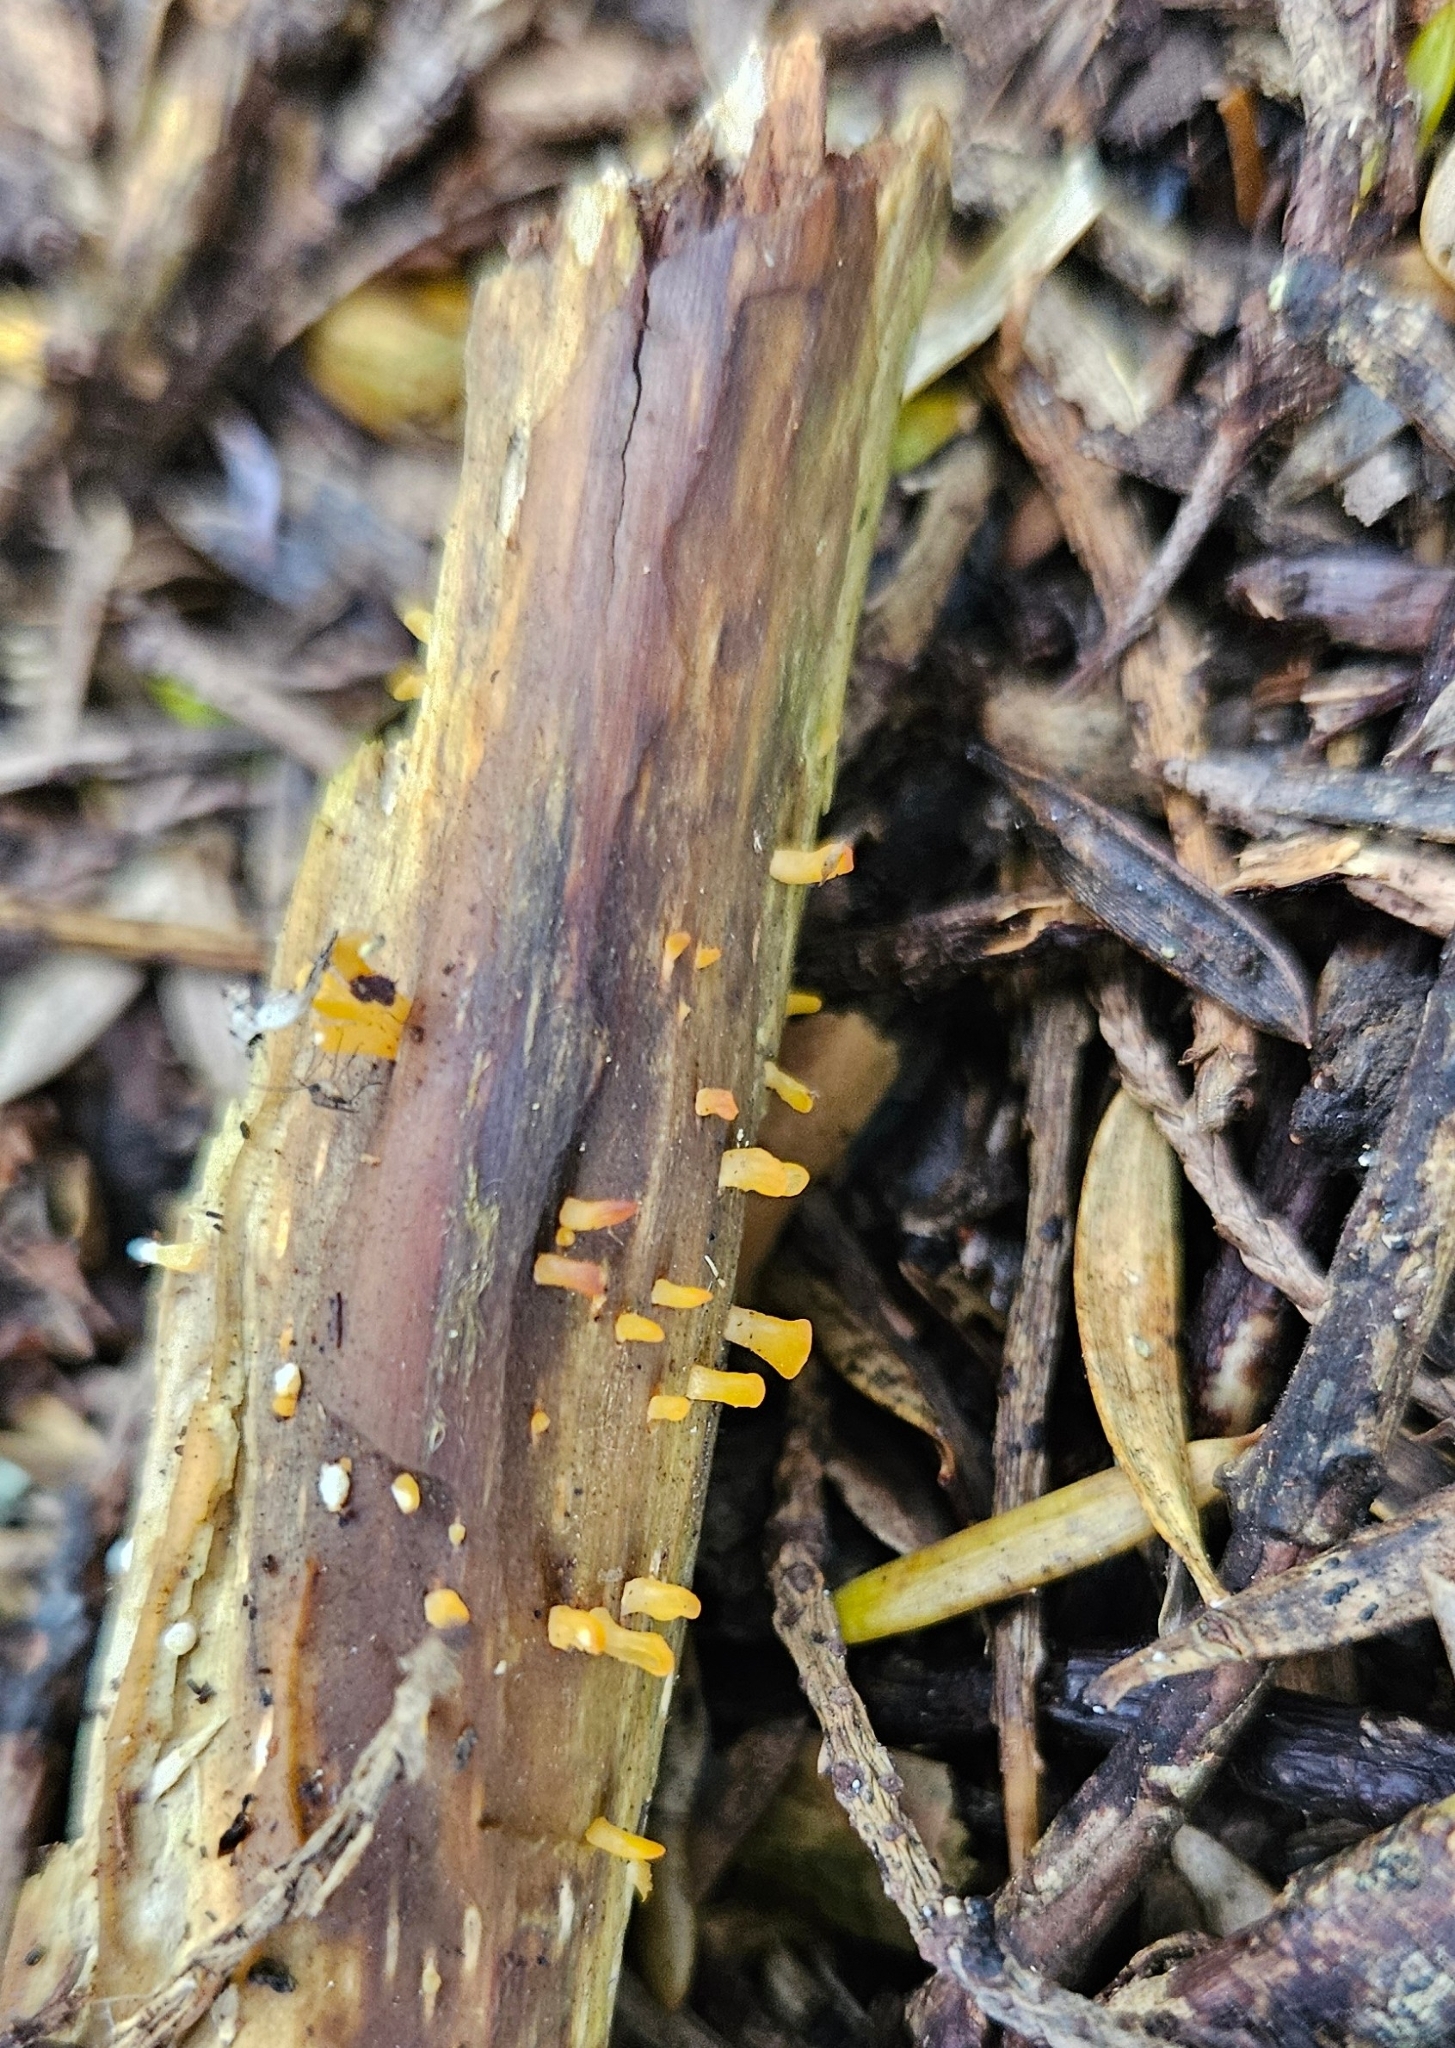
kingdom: Fungi
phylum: Basidiomycota
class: Dacrymycetes
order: Dacrymycetales
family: Dacrymycetaceae
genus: Calocera
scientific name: Calocera guepinioides
